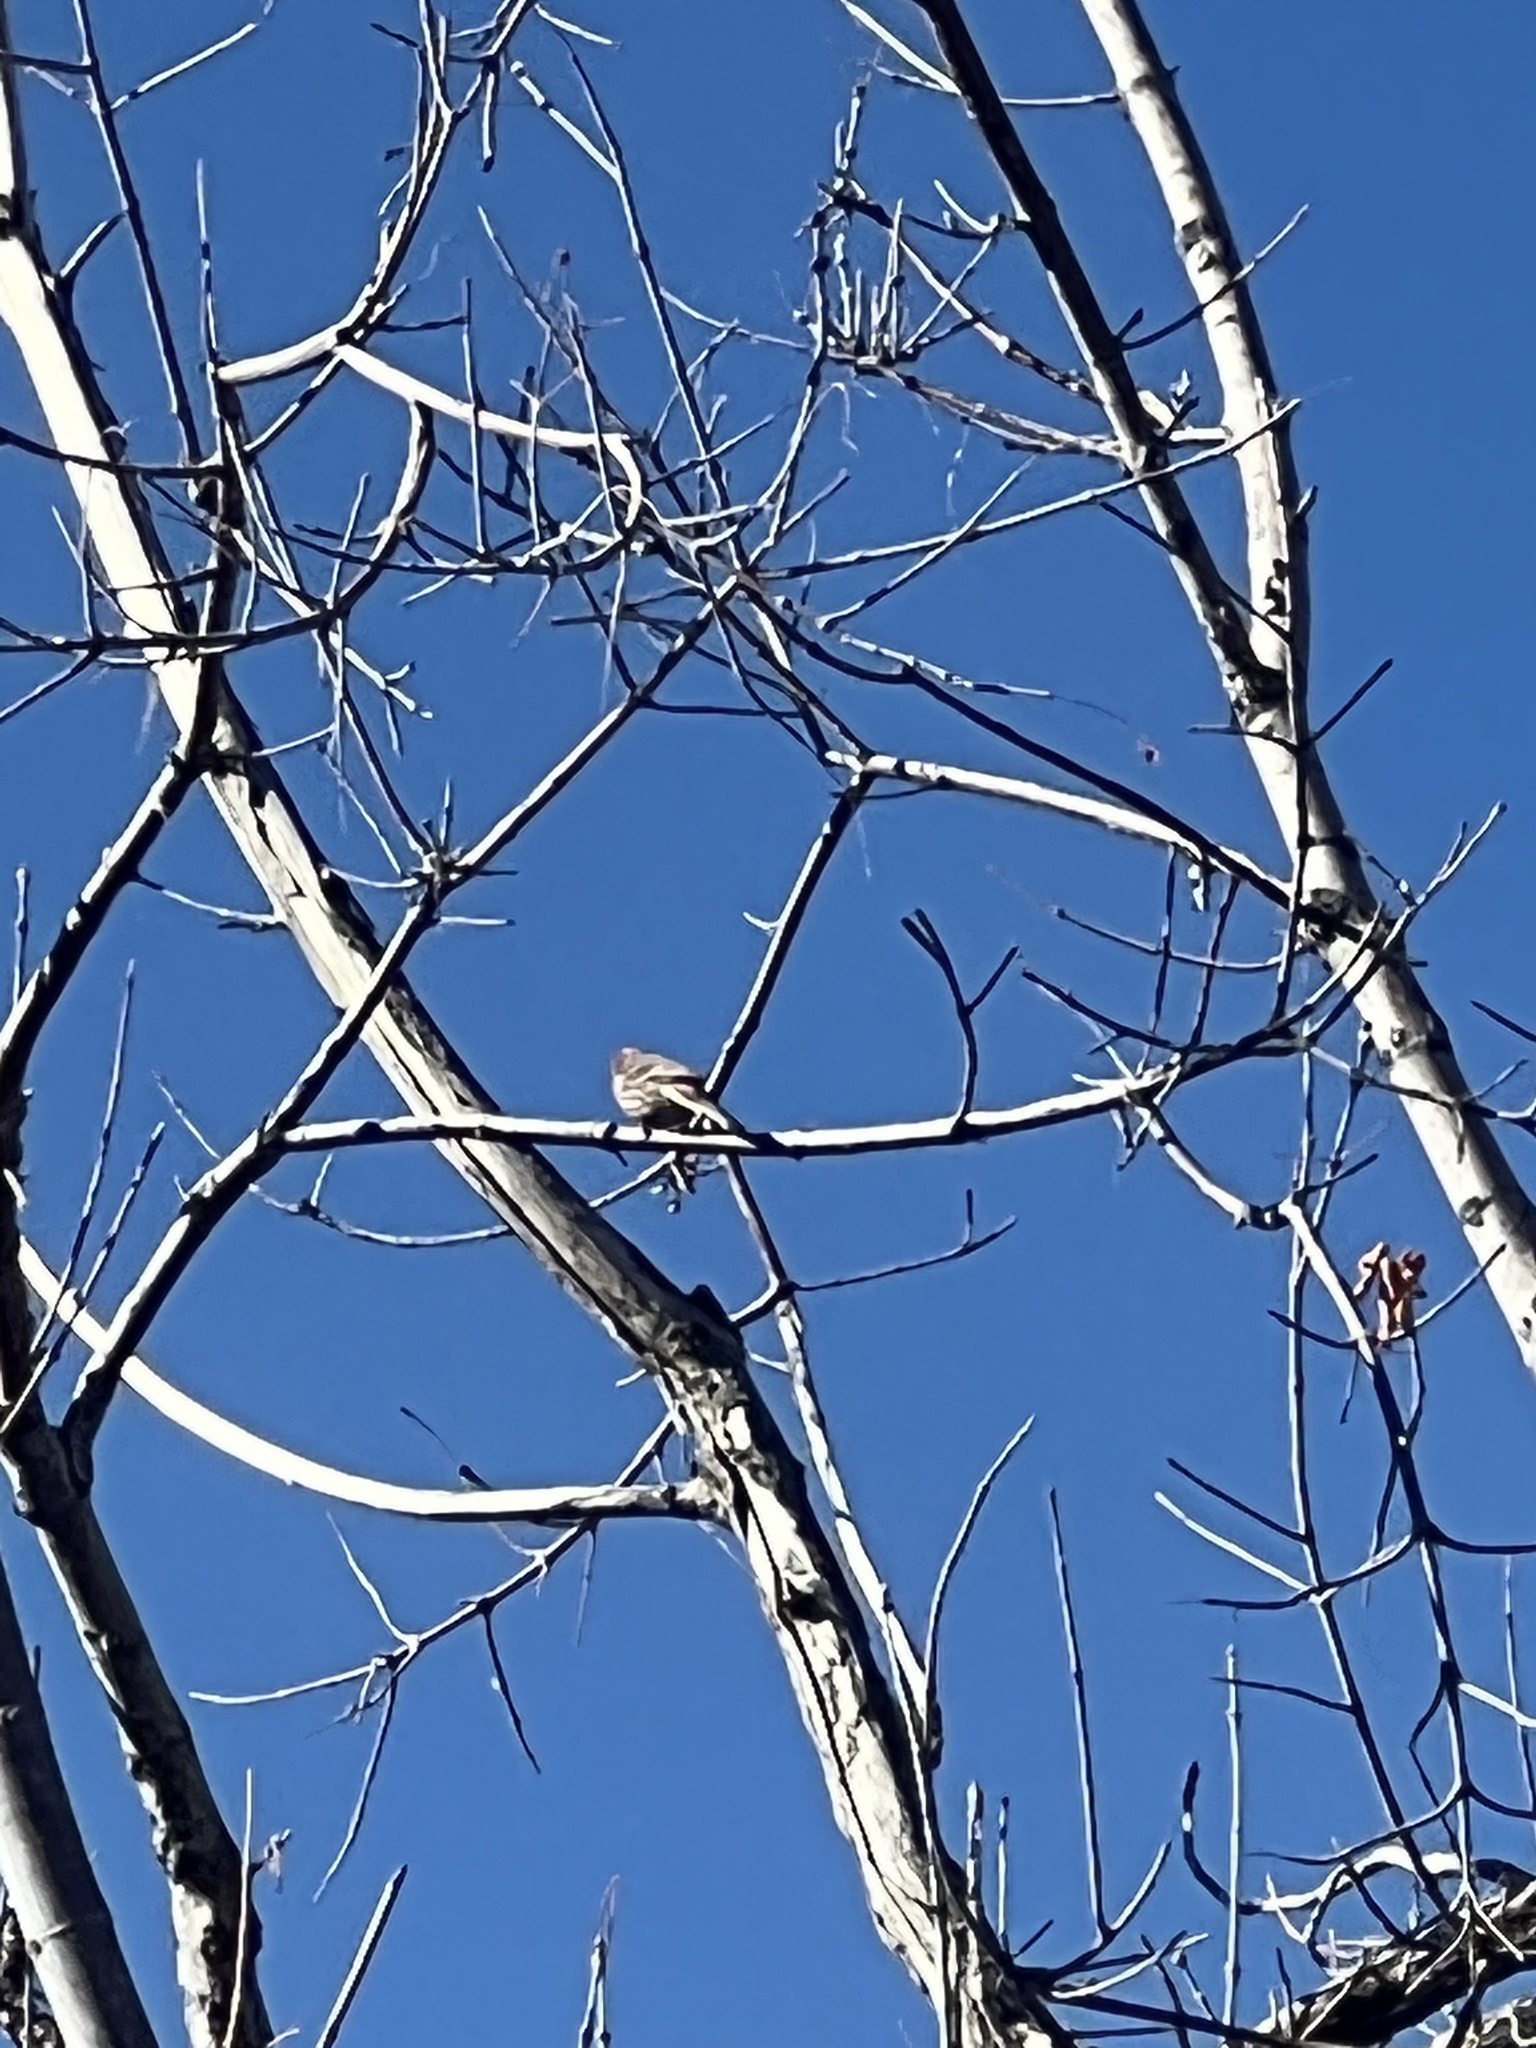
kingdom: Animalia
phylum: Chordata
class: Aves
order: Passeriformes
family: Fringillidae
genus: Haemorhous
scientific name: Haemorhous mexicanus
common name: House finch
